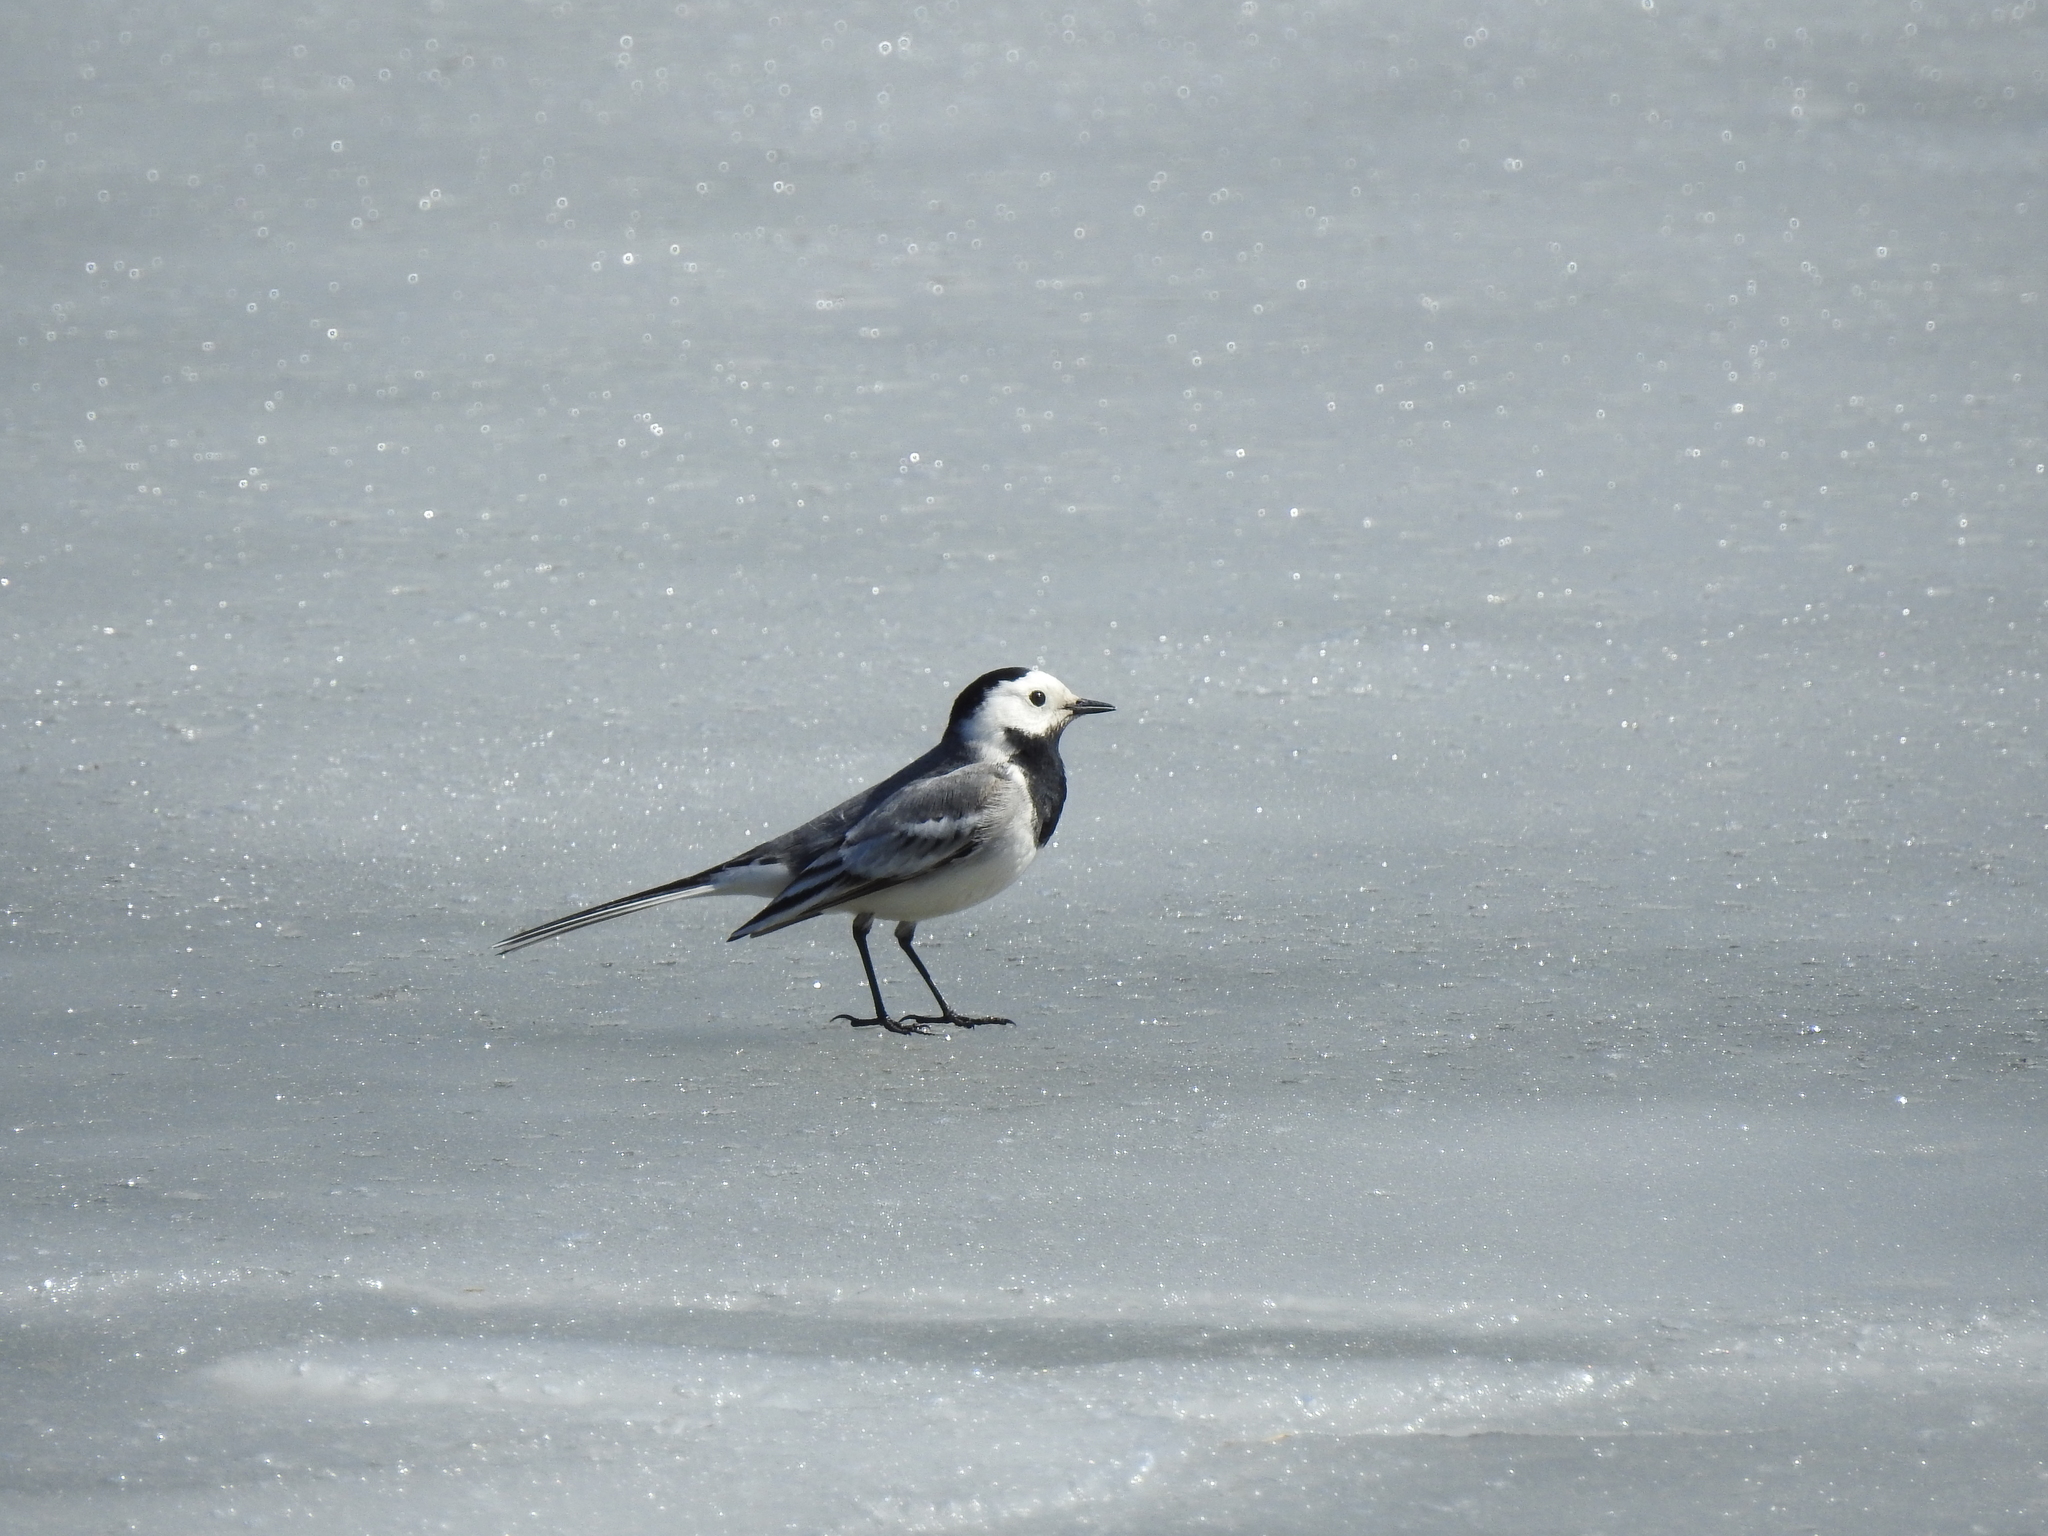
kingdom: Animalia
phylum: Chordata
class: Aves
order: Passeriformes
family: Motacillidae
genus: Motacilla
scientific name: Motacilla alba
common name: White wagtail
